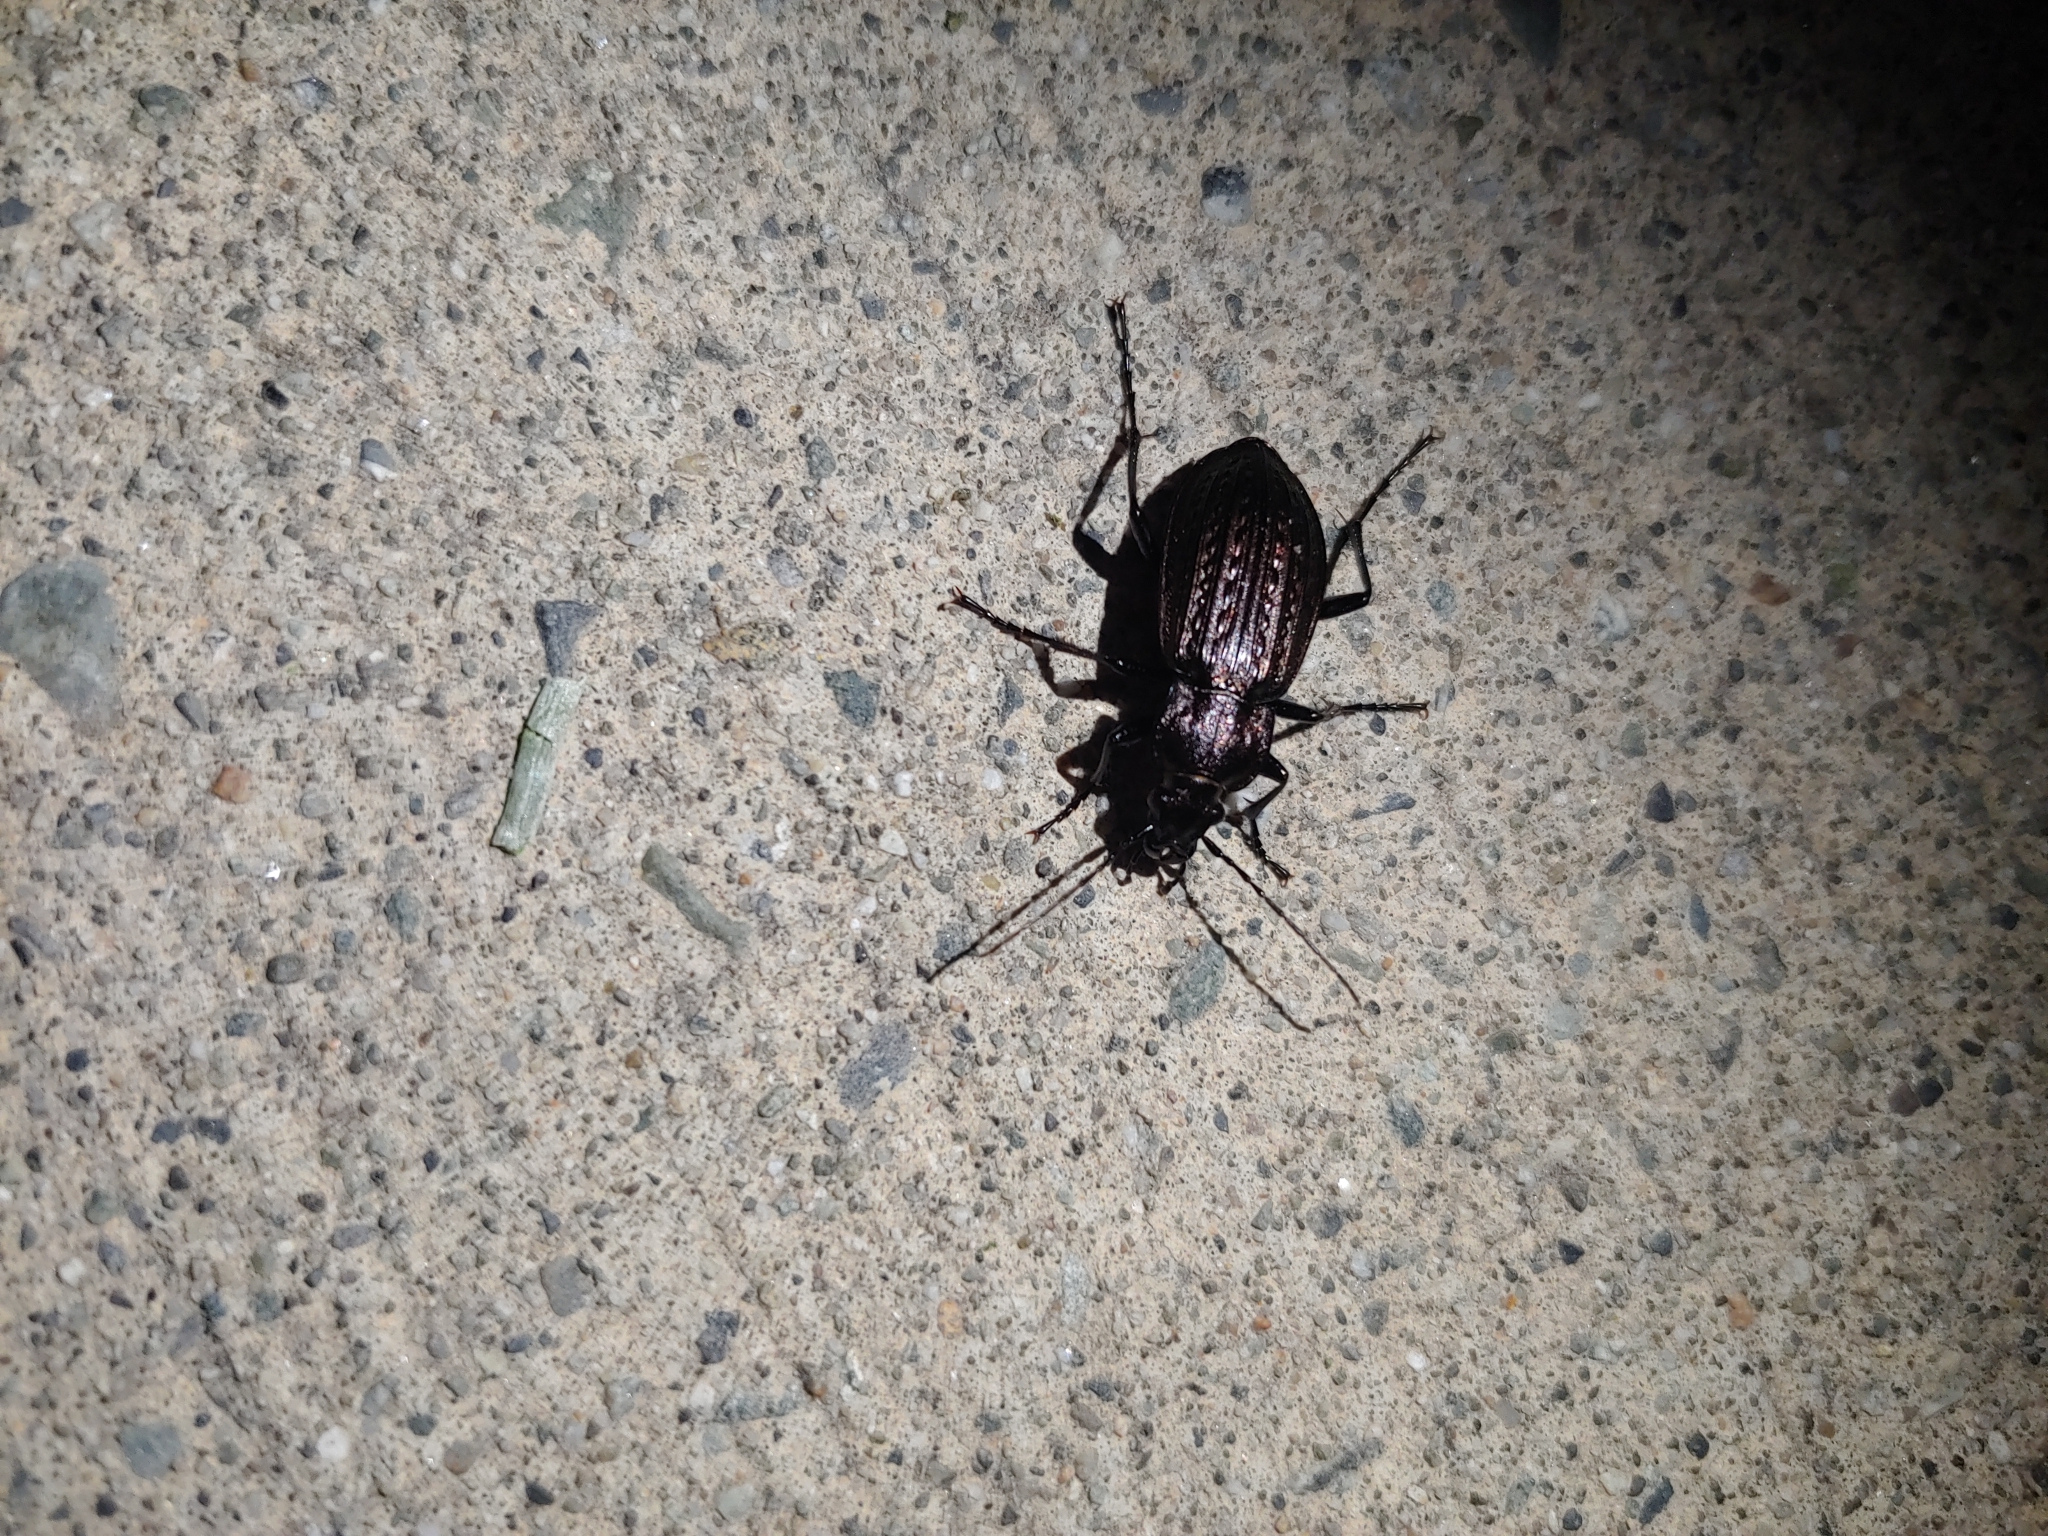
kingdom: Animalia
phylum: Arthropoda
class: Insecta
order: Coleoptera
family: Carabidae
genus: Carabus
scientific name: Carabus granulatus
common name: Granulate ground beetle
